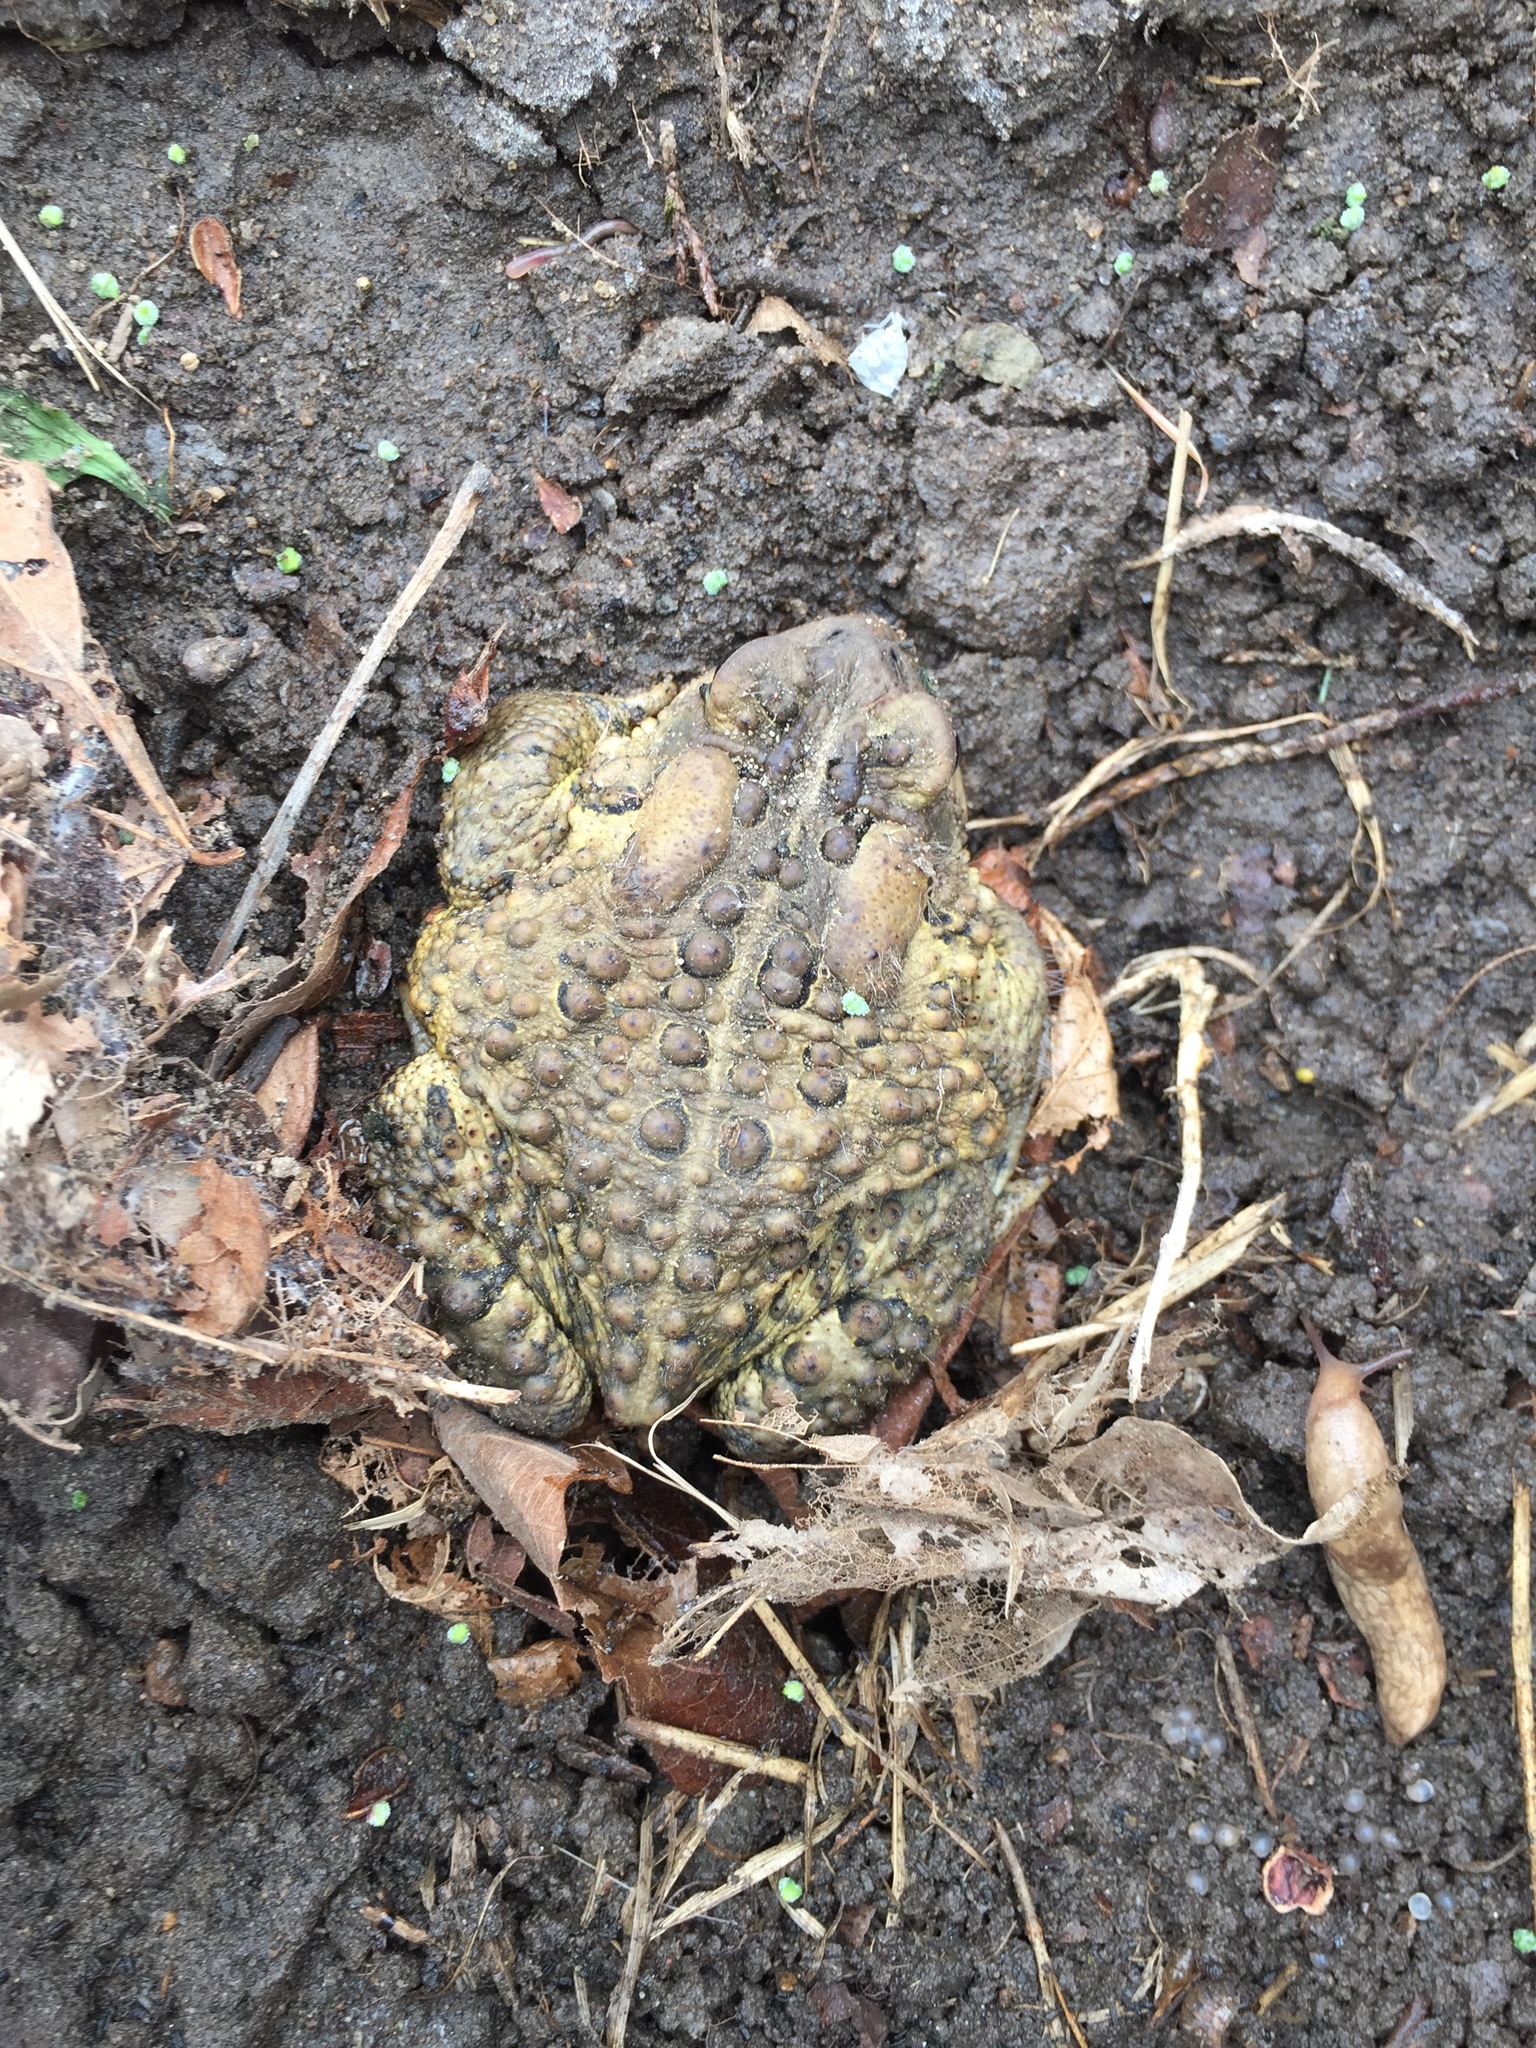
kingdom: Animalia
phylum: Chordata
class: Amphibia
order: Anura
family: Bufonidae
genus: Anaxyrus
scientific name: Anaxyrus americanus
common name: American toad
